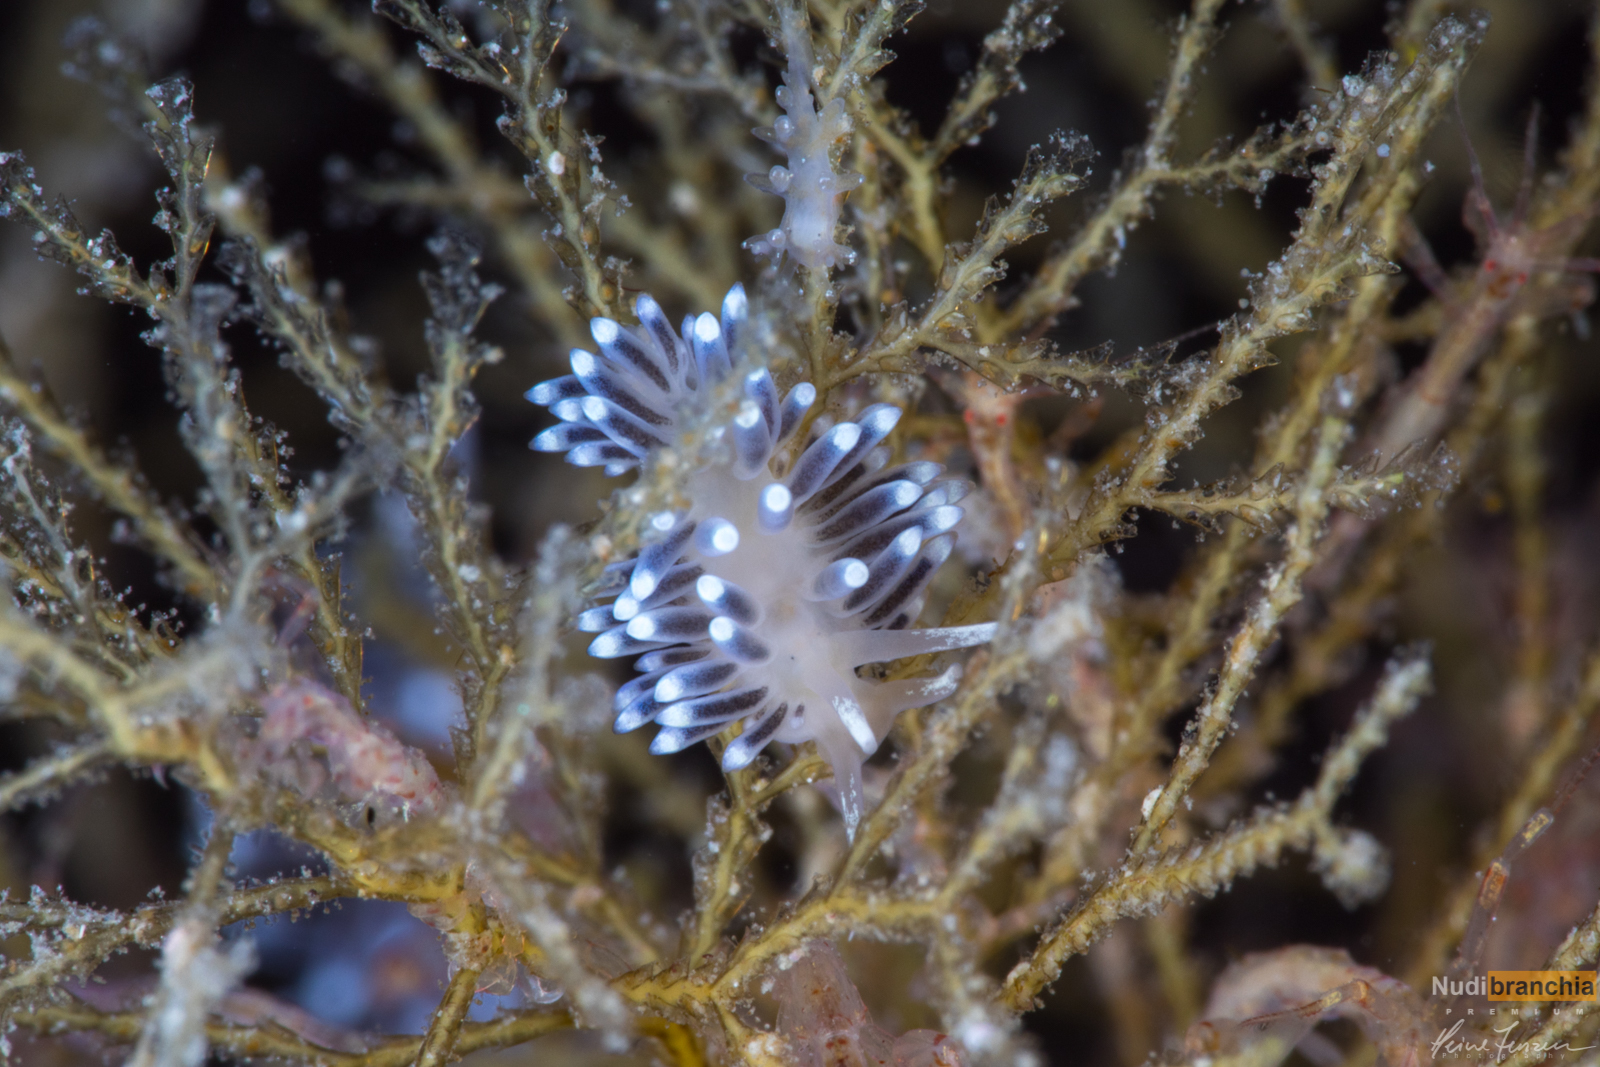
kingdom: Animalia
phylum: Mollusca
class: Gastropoda
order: Nudibranchia
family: Cuthonellidae
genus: Cuthonella
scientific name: Cuthonella concinna
